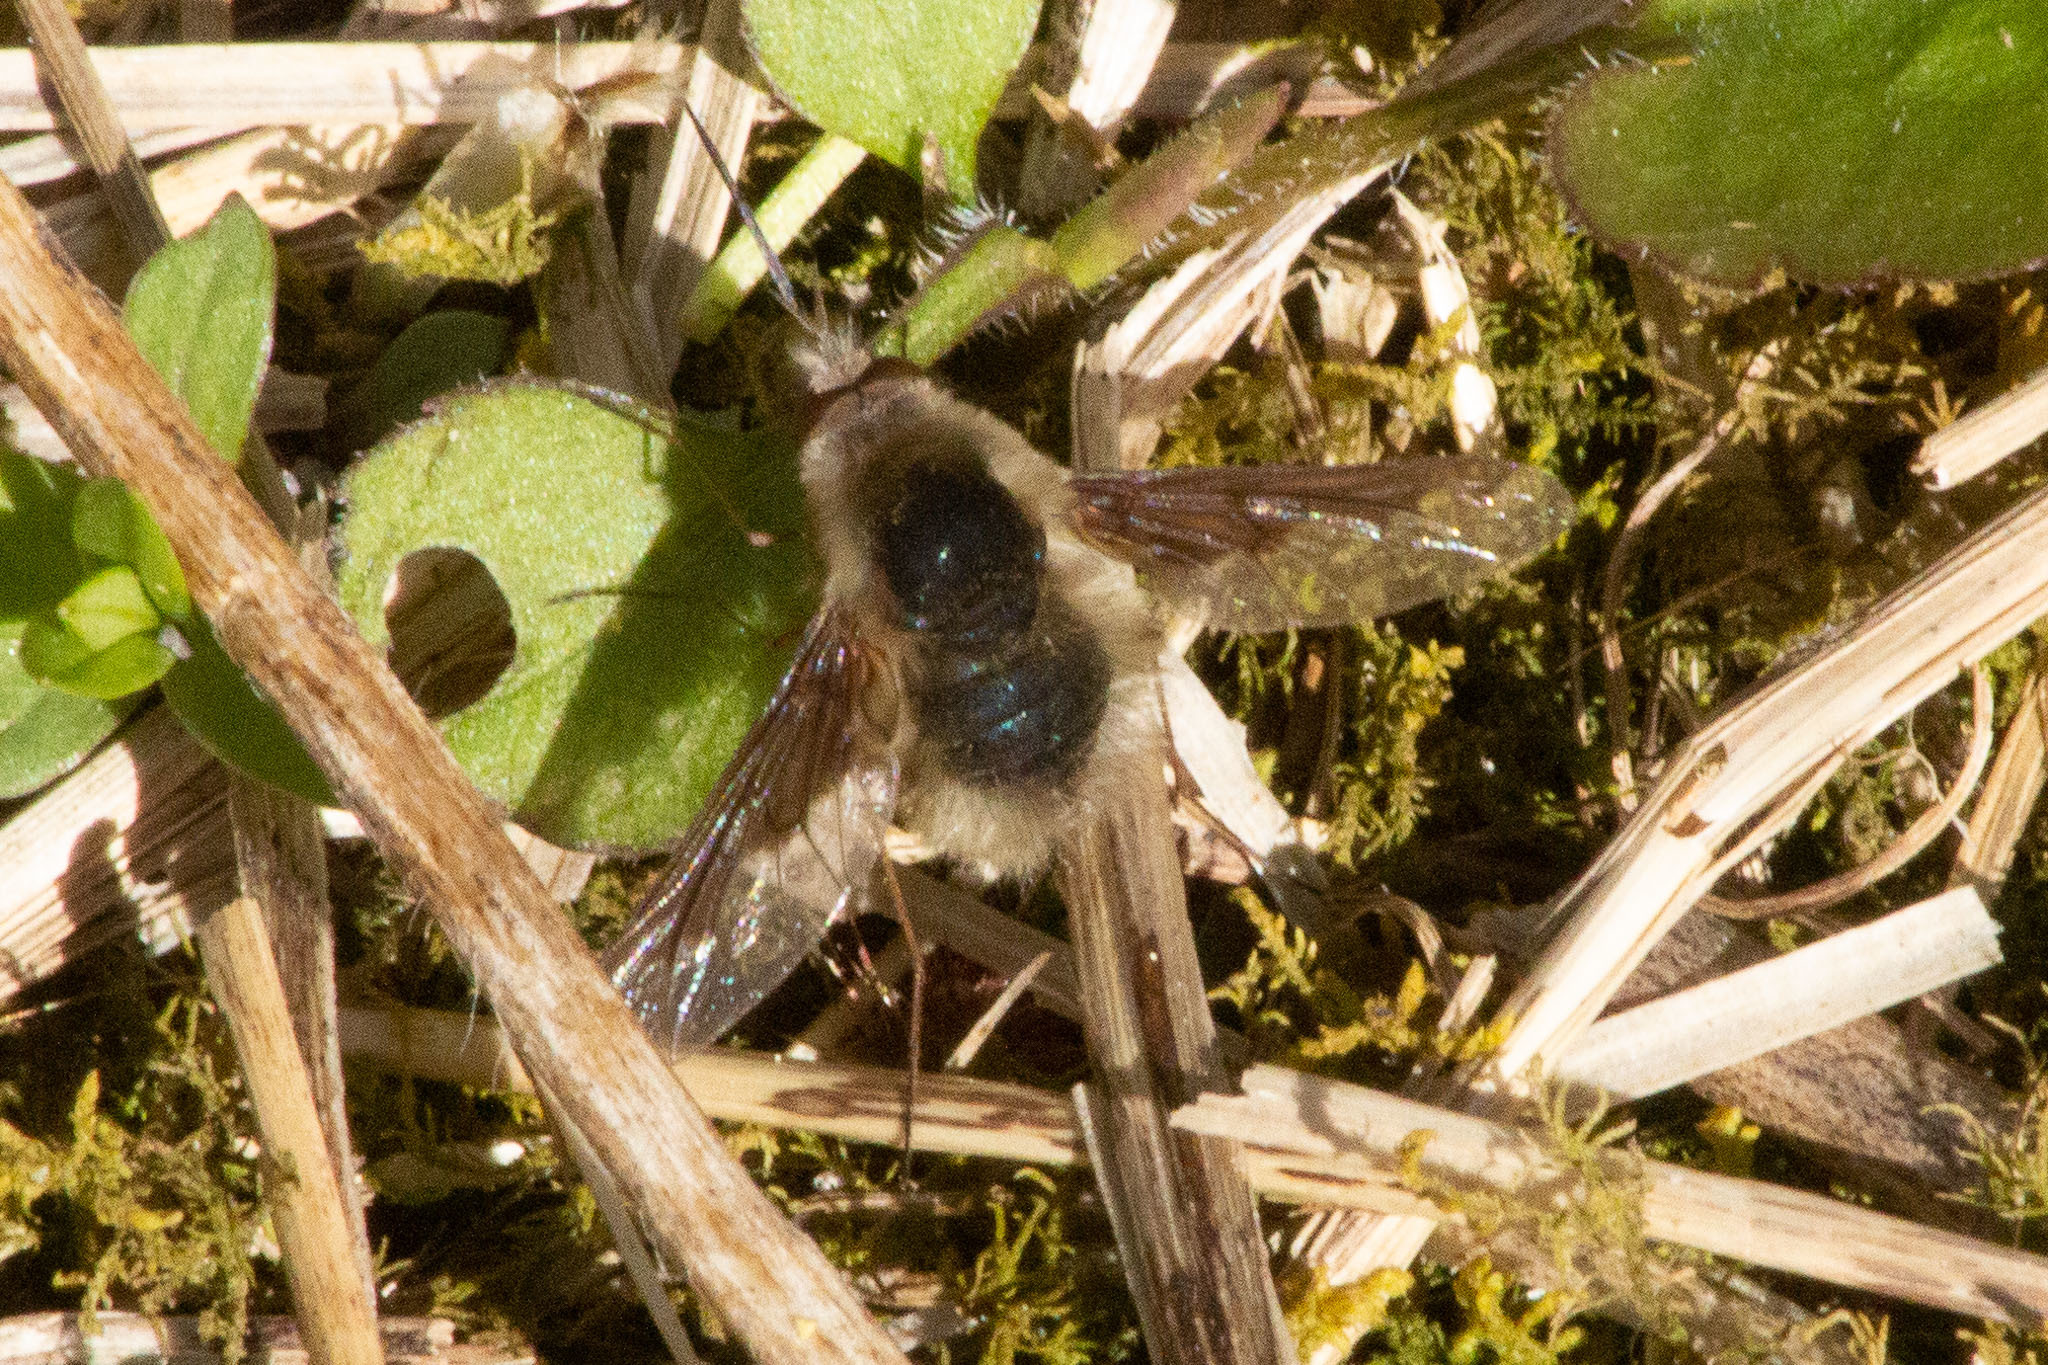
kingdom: Animalia
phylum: Arthropoda
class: Insecta
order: Diptera
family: Bombyliidae
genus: Bombylius
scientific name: Bombylius major
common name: Bee fly
